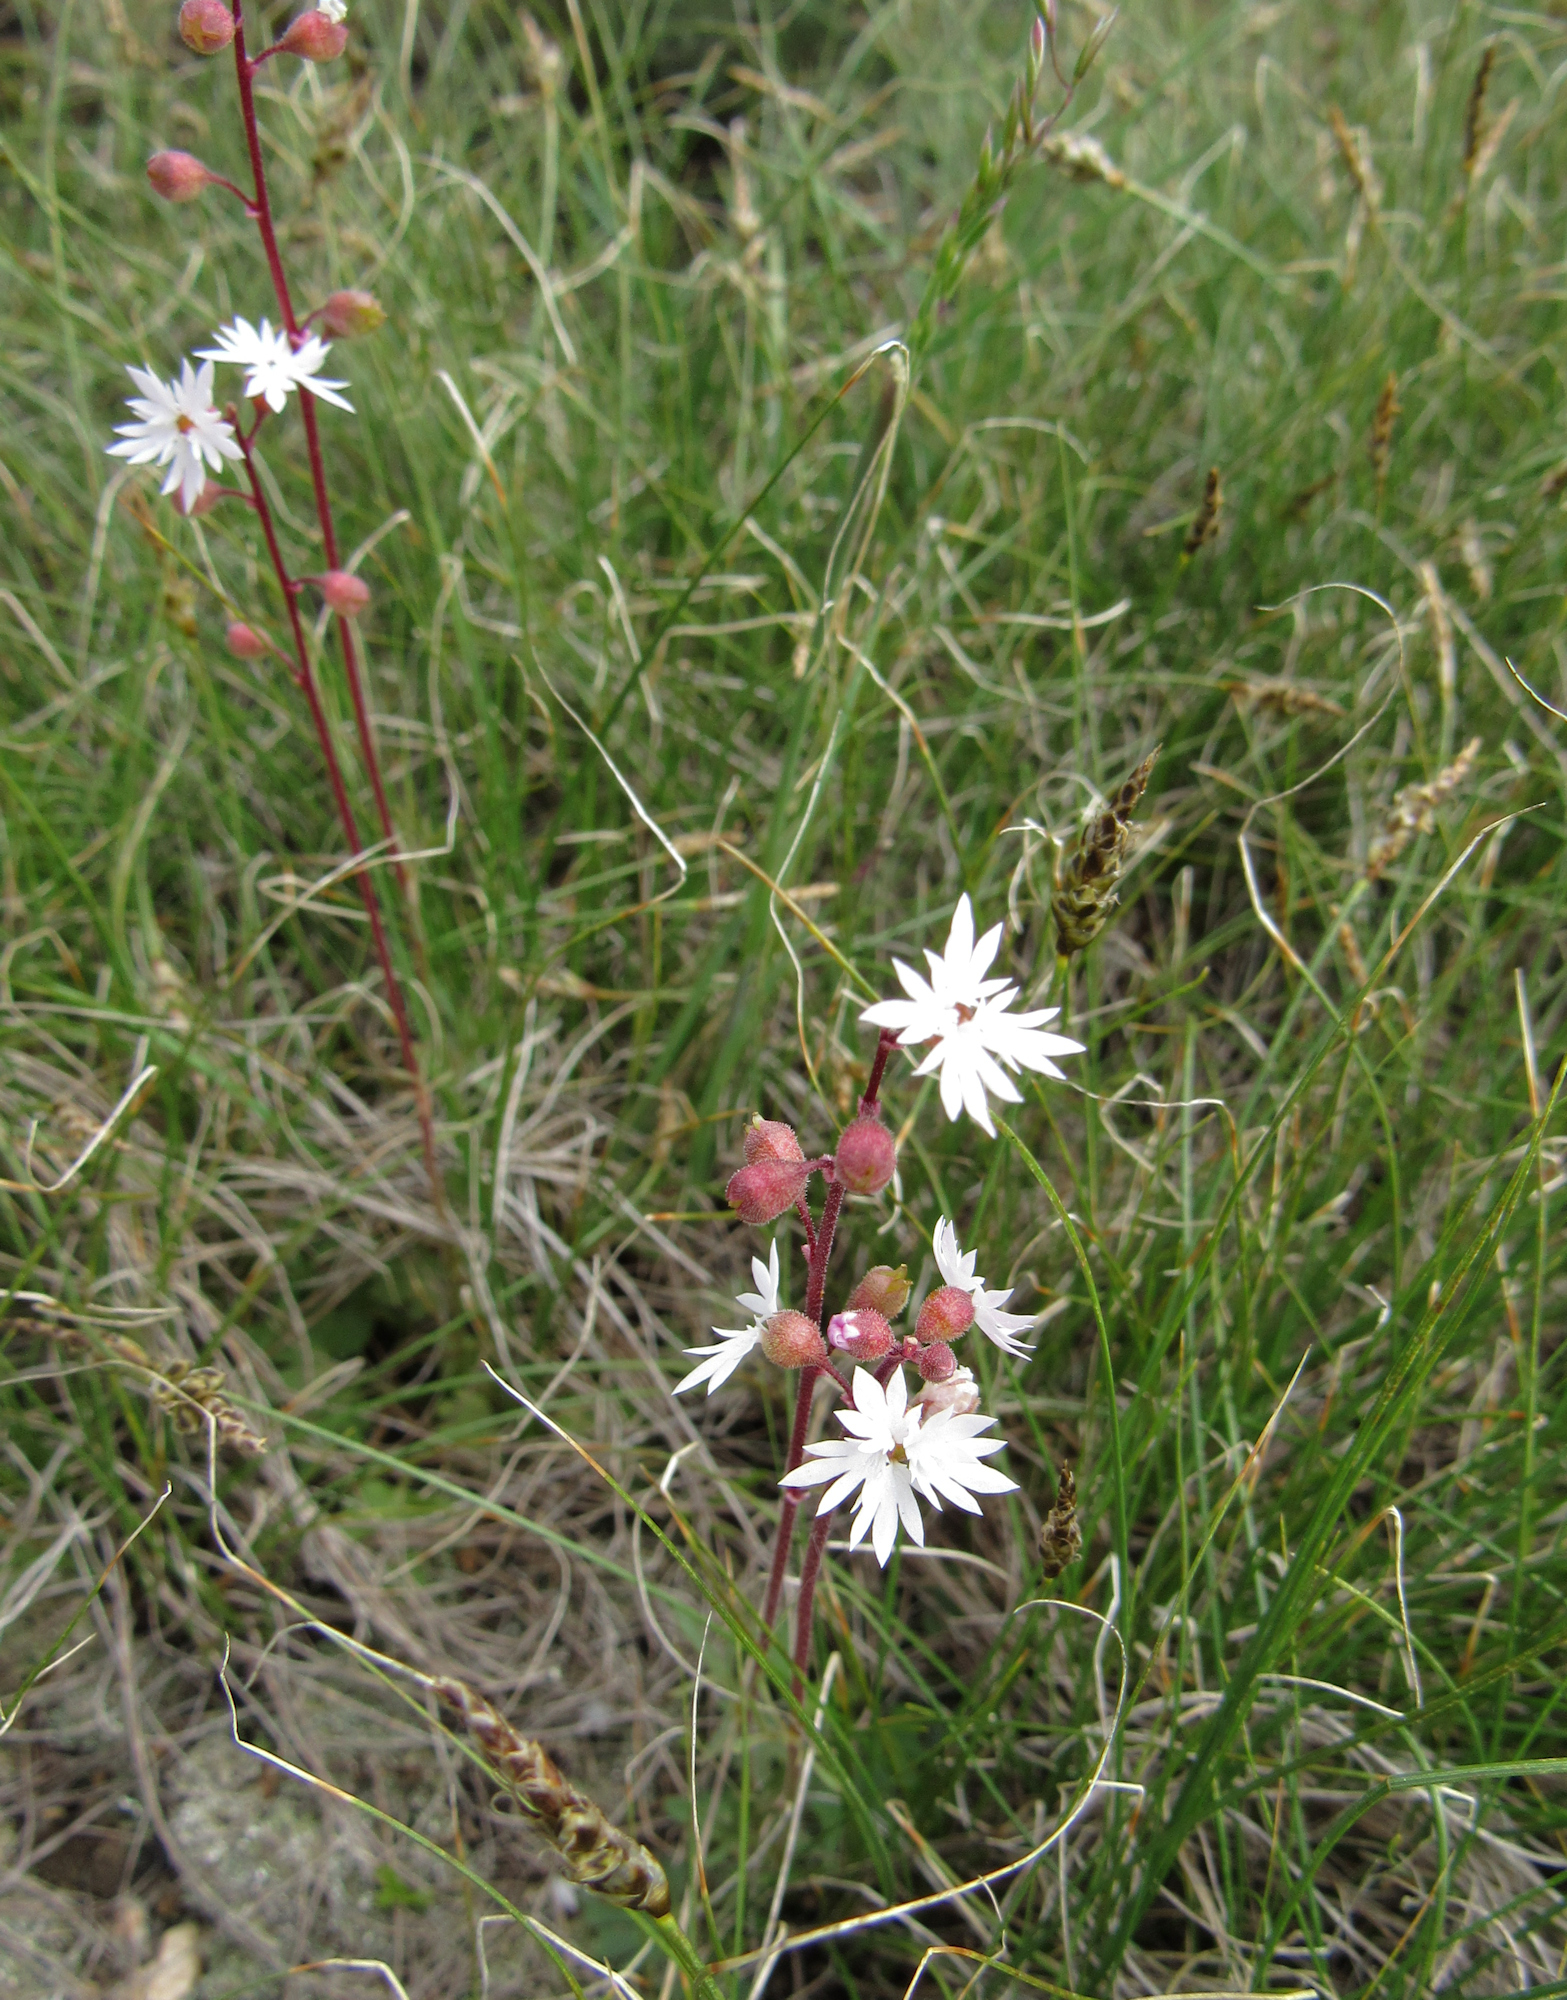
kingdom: Plantae
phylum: Tracheophyta
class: Magnoliopsida
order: Saxifragales
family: Saxifragaceae
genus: Lithophragma
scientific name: Lithophragma tenella
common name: Slender fringe-cup
